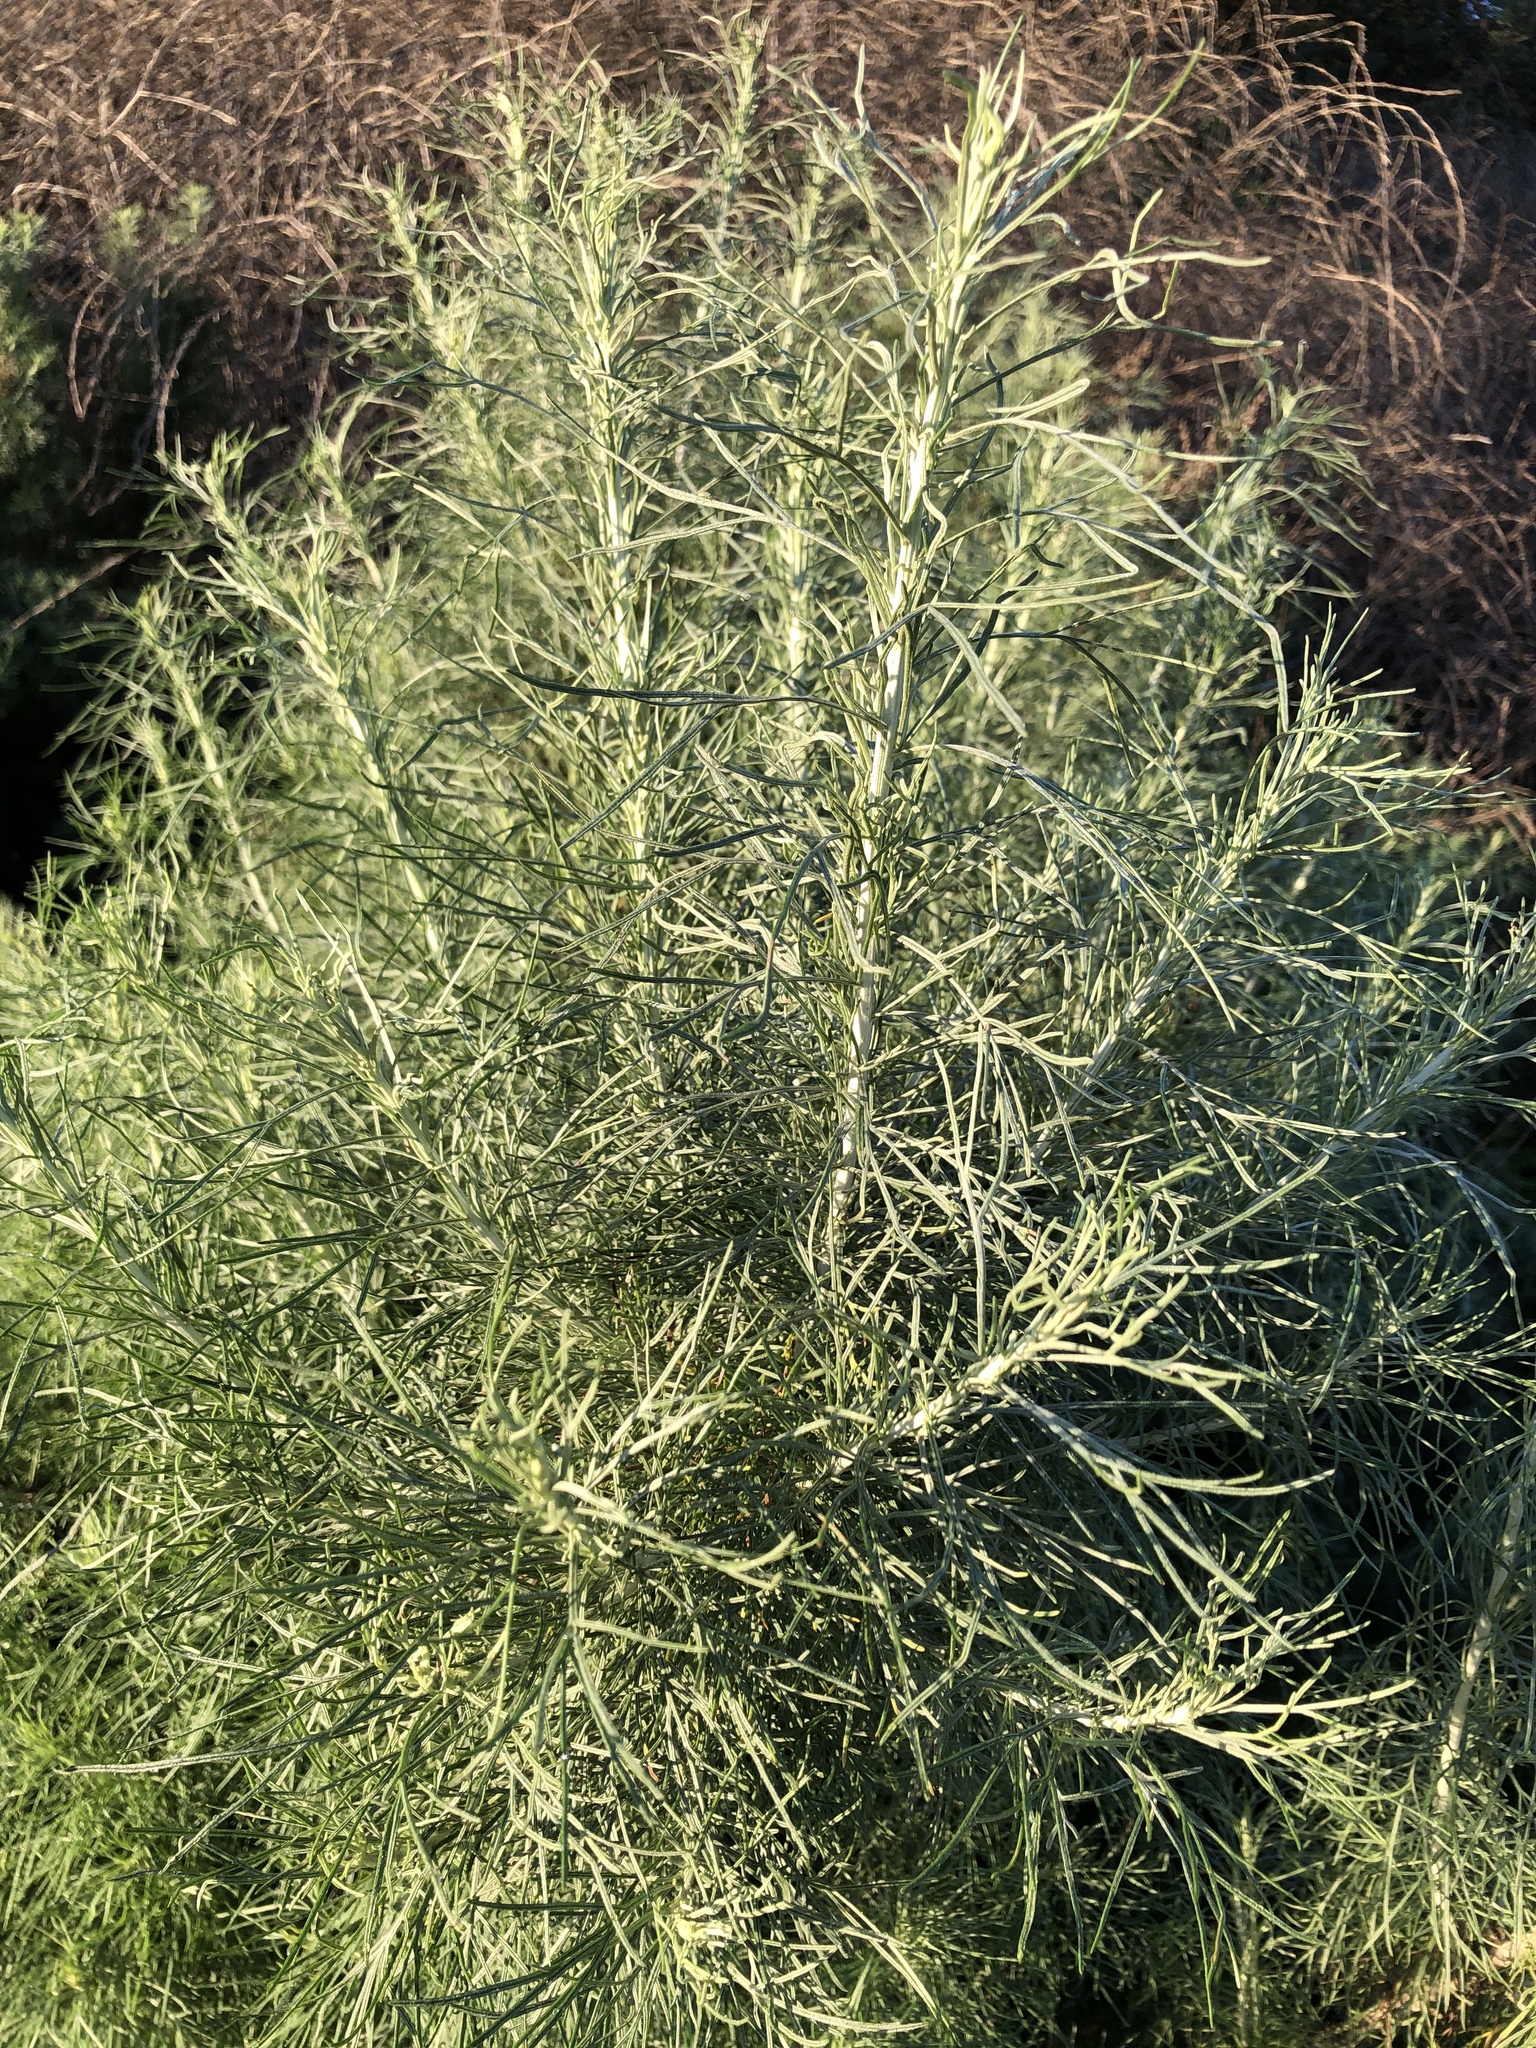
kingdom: Plantae
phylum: Tracheophyta
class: Magnoliopsida
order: Asterales
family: Asteraceae
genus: Artemisia
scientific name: Artemisia californica
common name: California sagebrush
